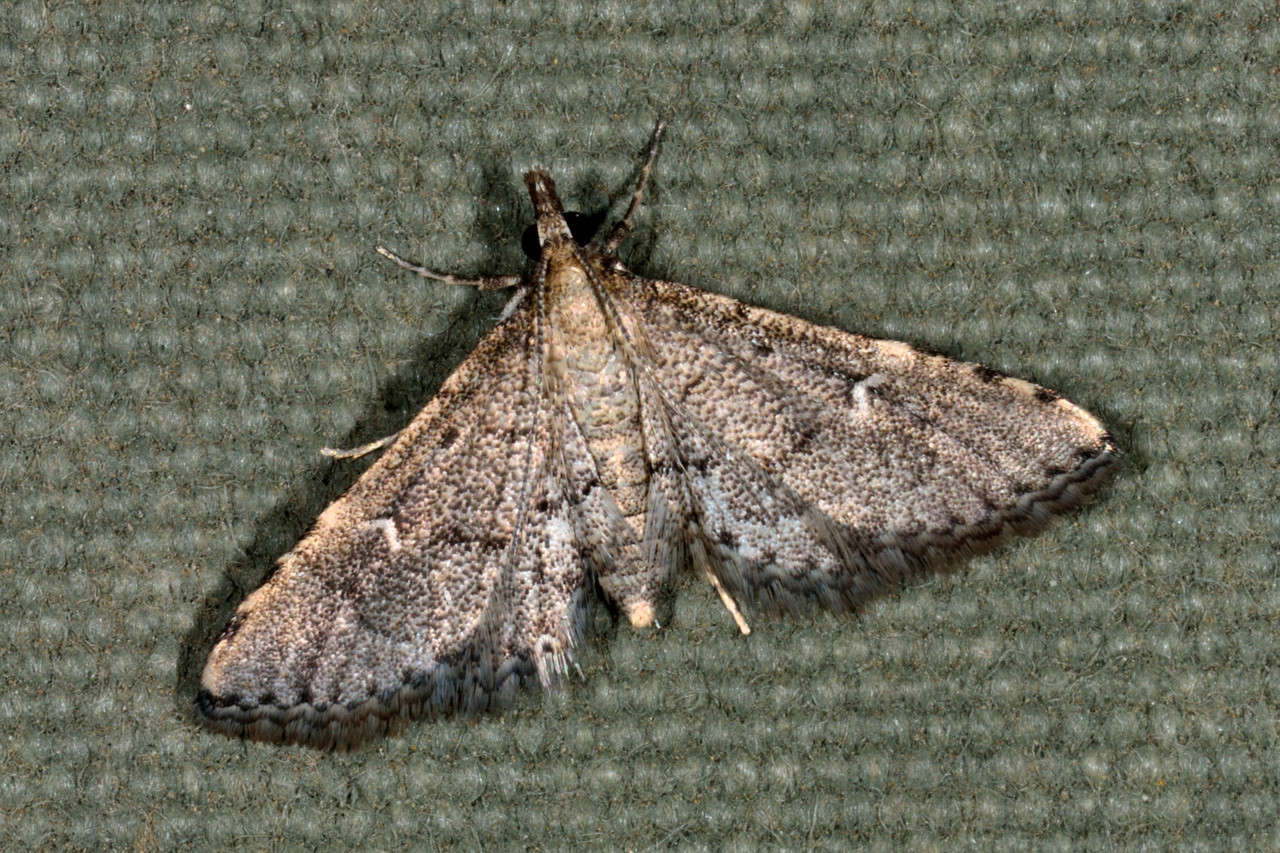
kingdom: Animalia
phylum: Arthropoda
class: Insecta
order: Lepidoptera
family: Crambidae
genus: Metasia
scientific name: Metasia capnochroa
